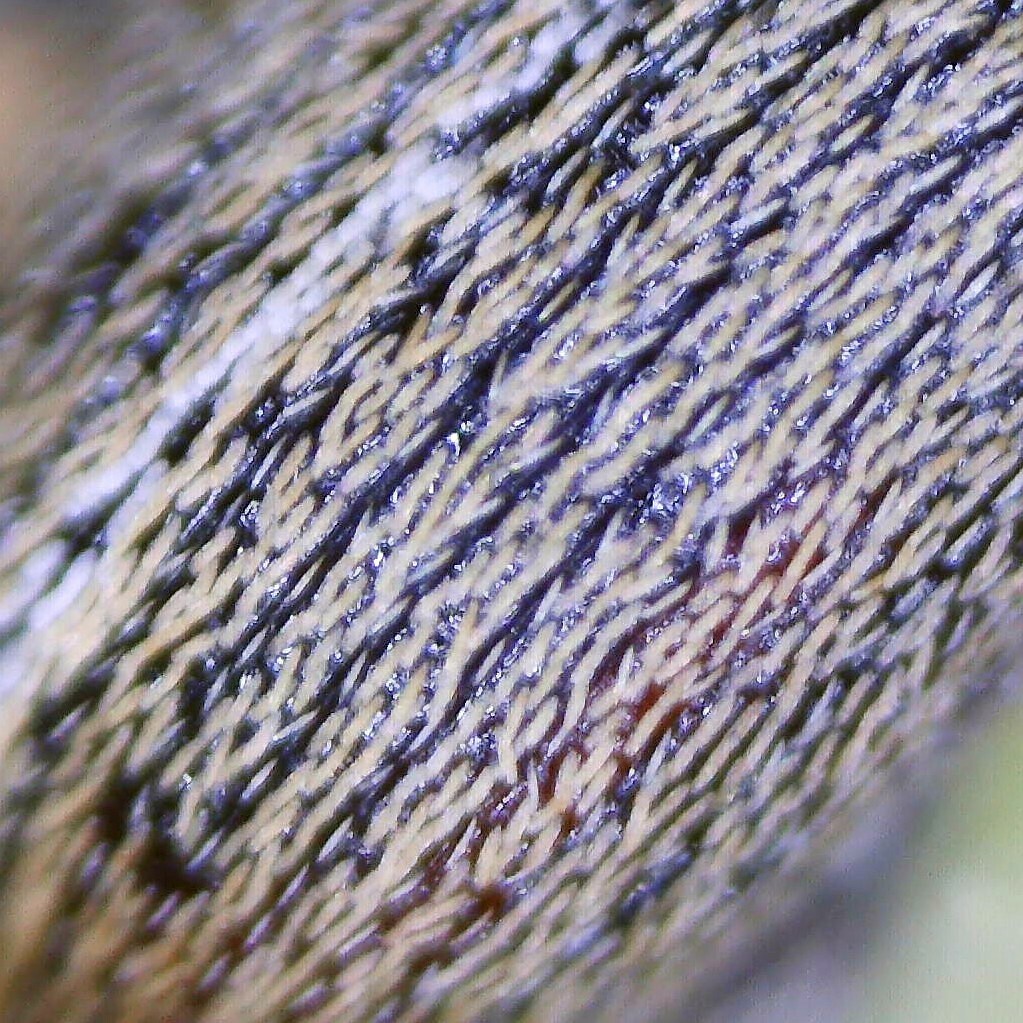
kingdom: Animalia
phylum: Arthropoda
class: Insecta
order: Coleoptera
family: Curculionidae
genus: Tychius
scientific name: Tychius meliloti
